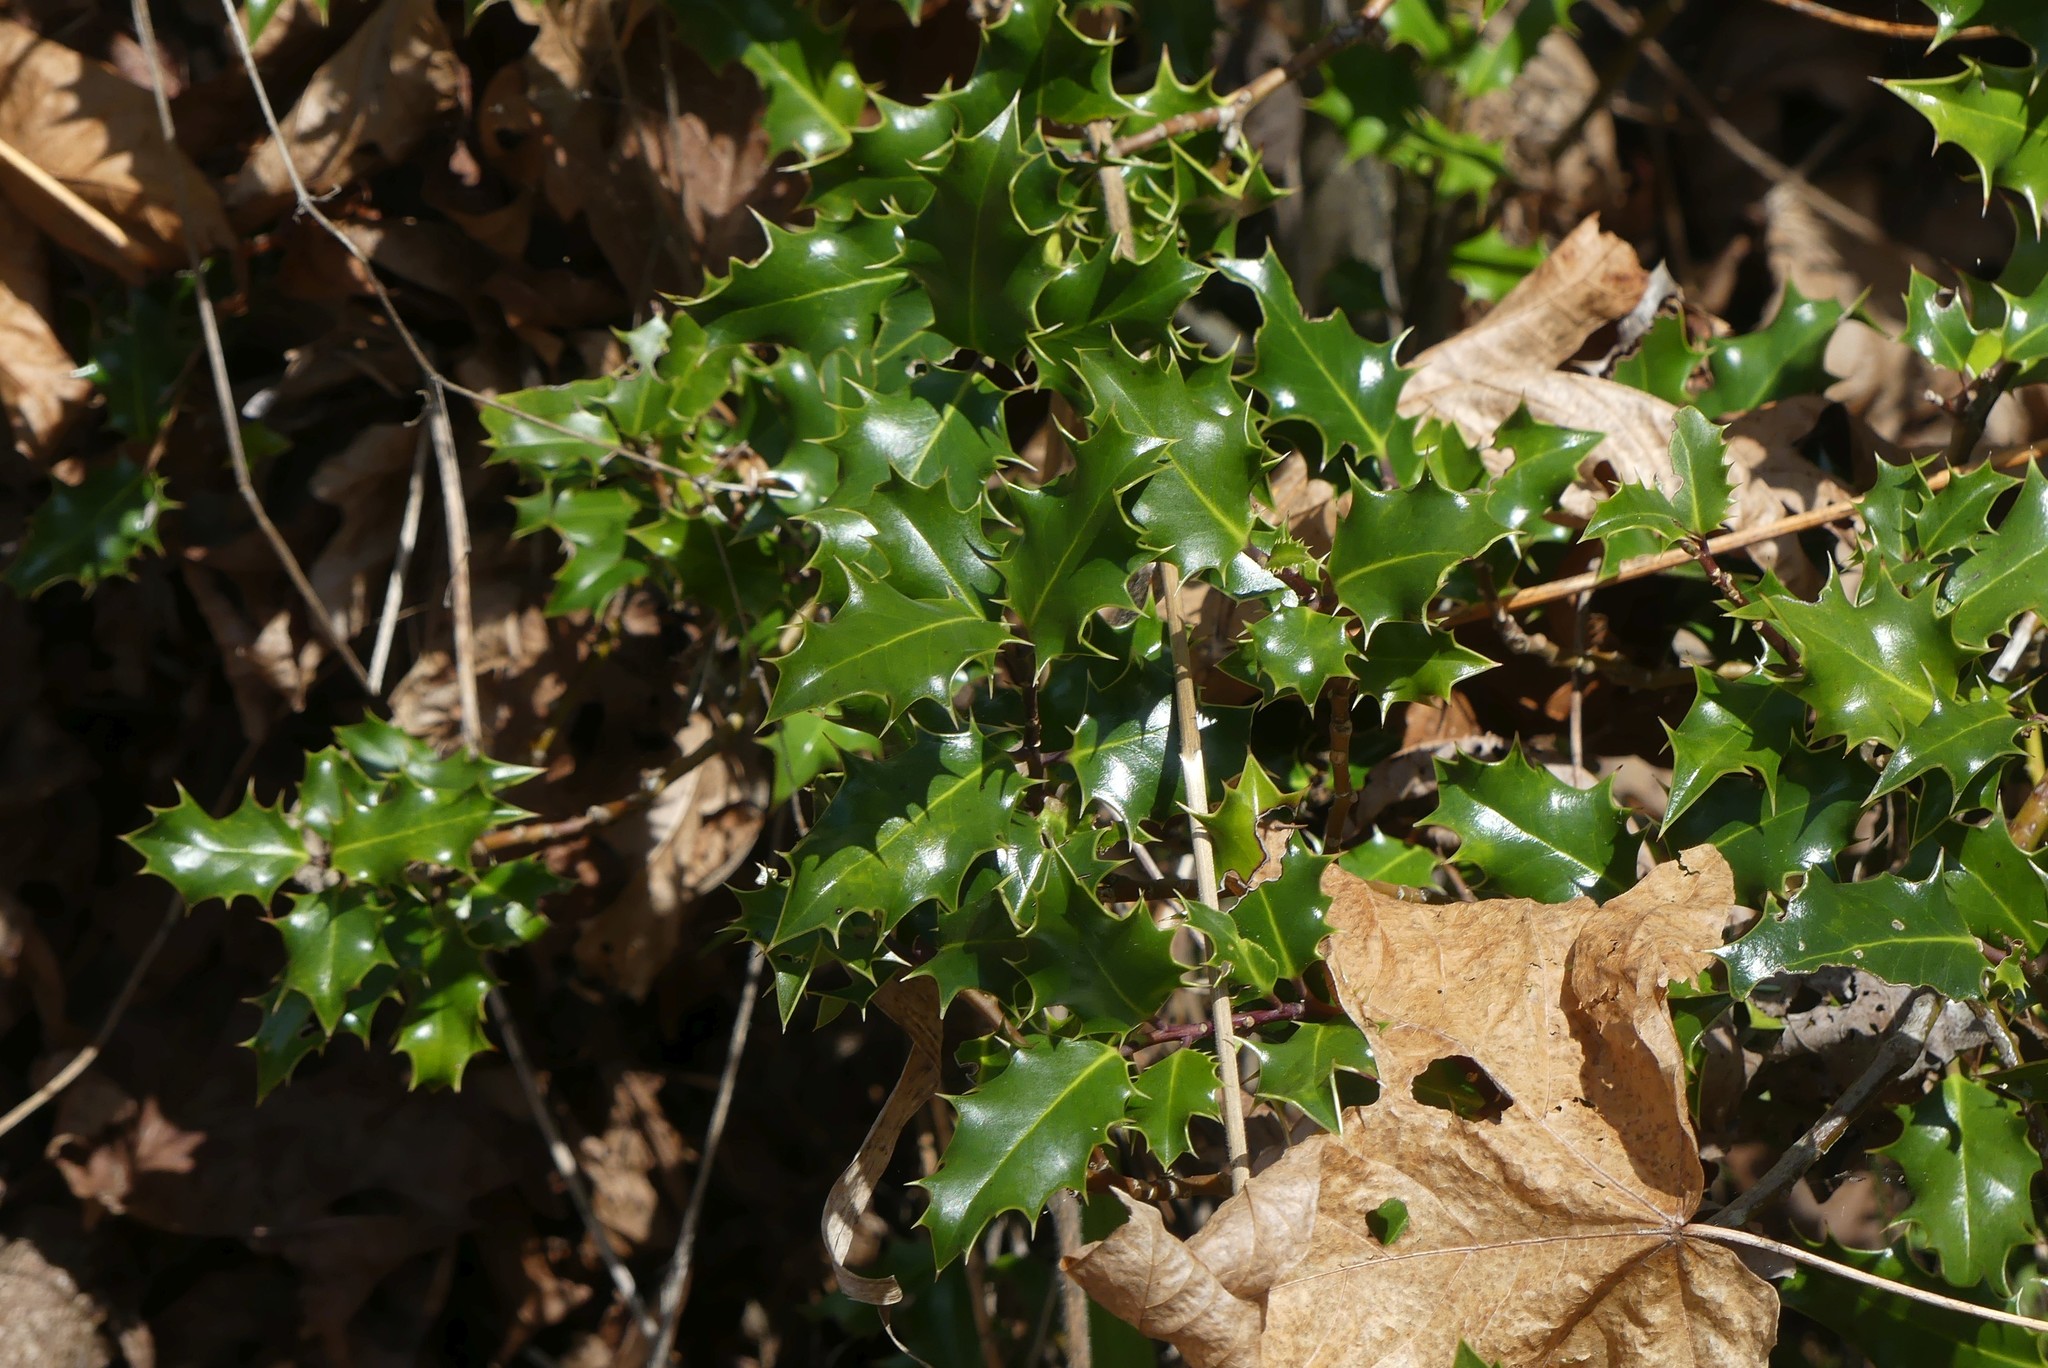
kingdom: Plantae
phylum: Tracheophyta
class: Magnoliopsida
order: Aquifoliales
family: Aquifoliaceae
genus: Ilex
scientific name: Ilex aquifolium
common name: English holly
